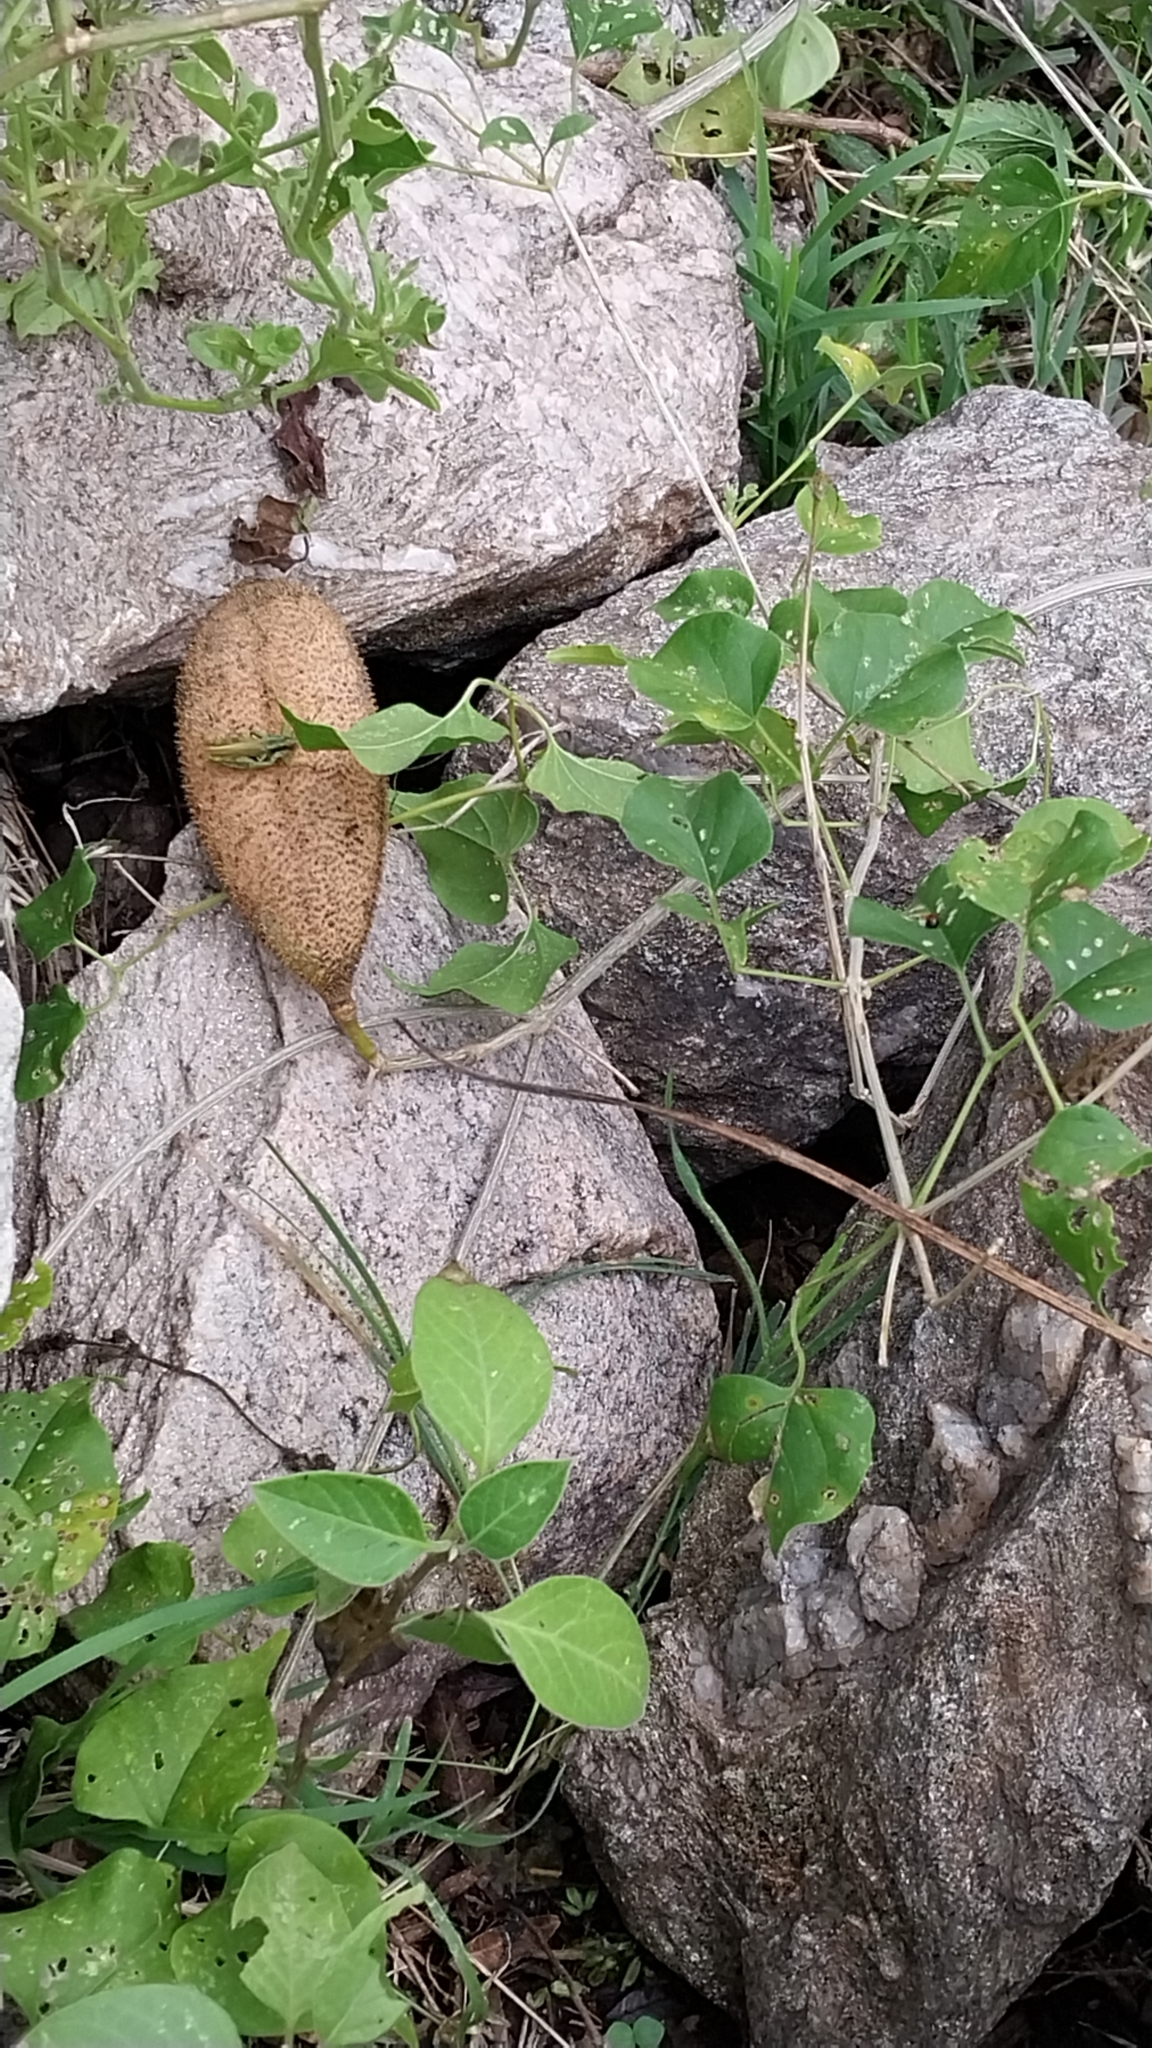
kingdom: Plantae
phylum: Tracheophyta
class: Magnoliopsida
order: Lamiales
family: Bignoniaceae
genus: Amphilophium
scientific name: Amphilophium carolinae
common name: Monkey's-comb
